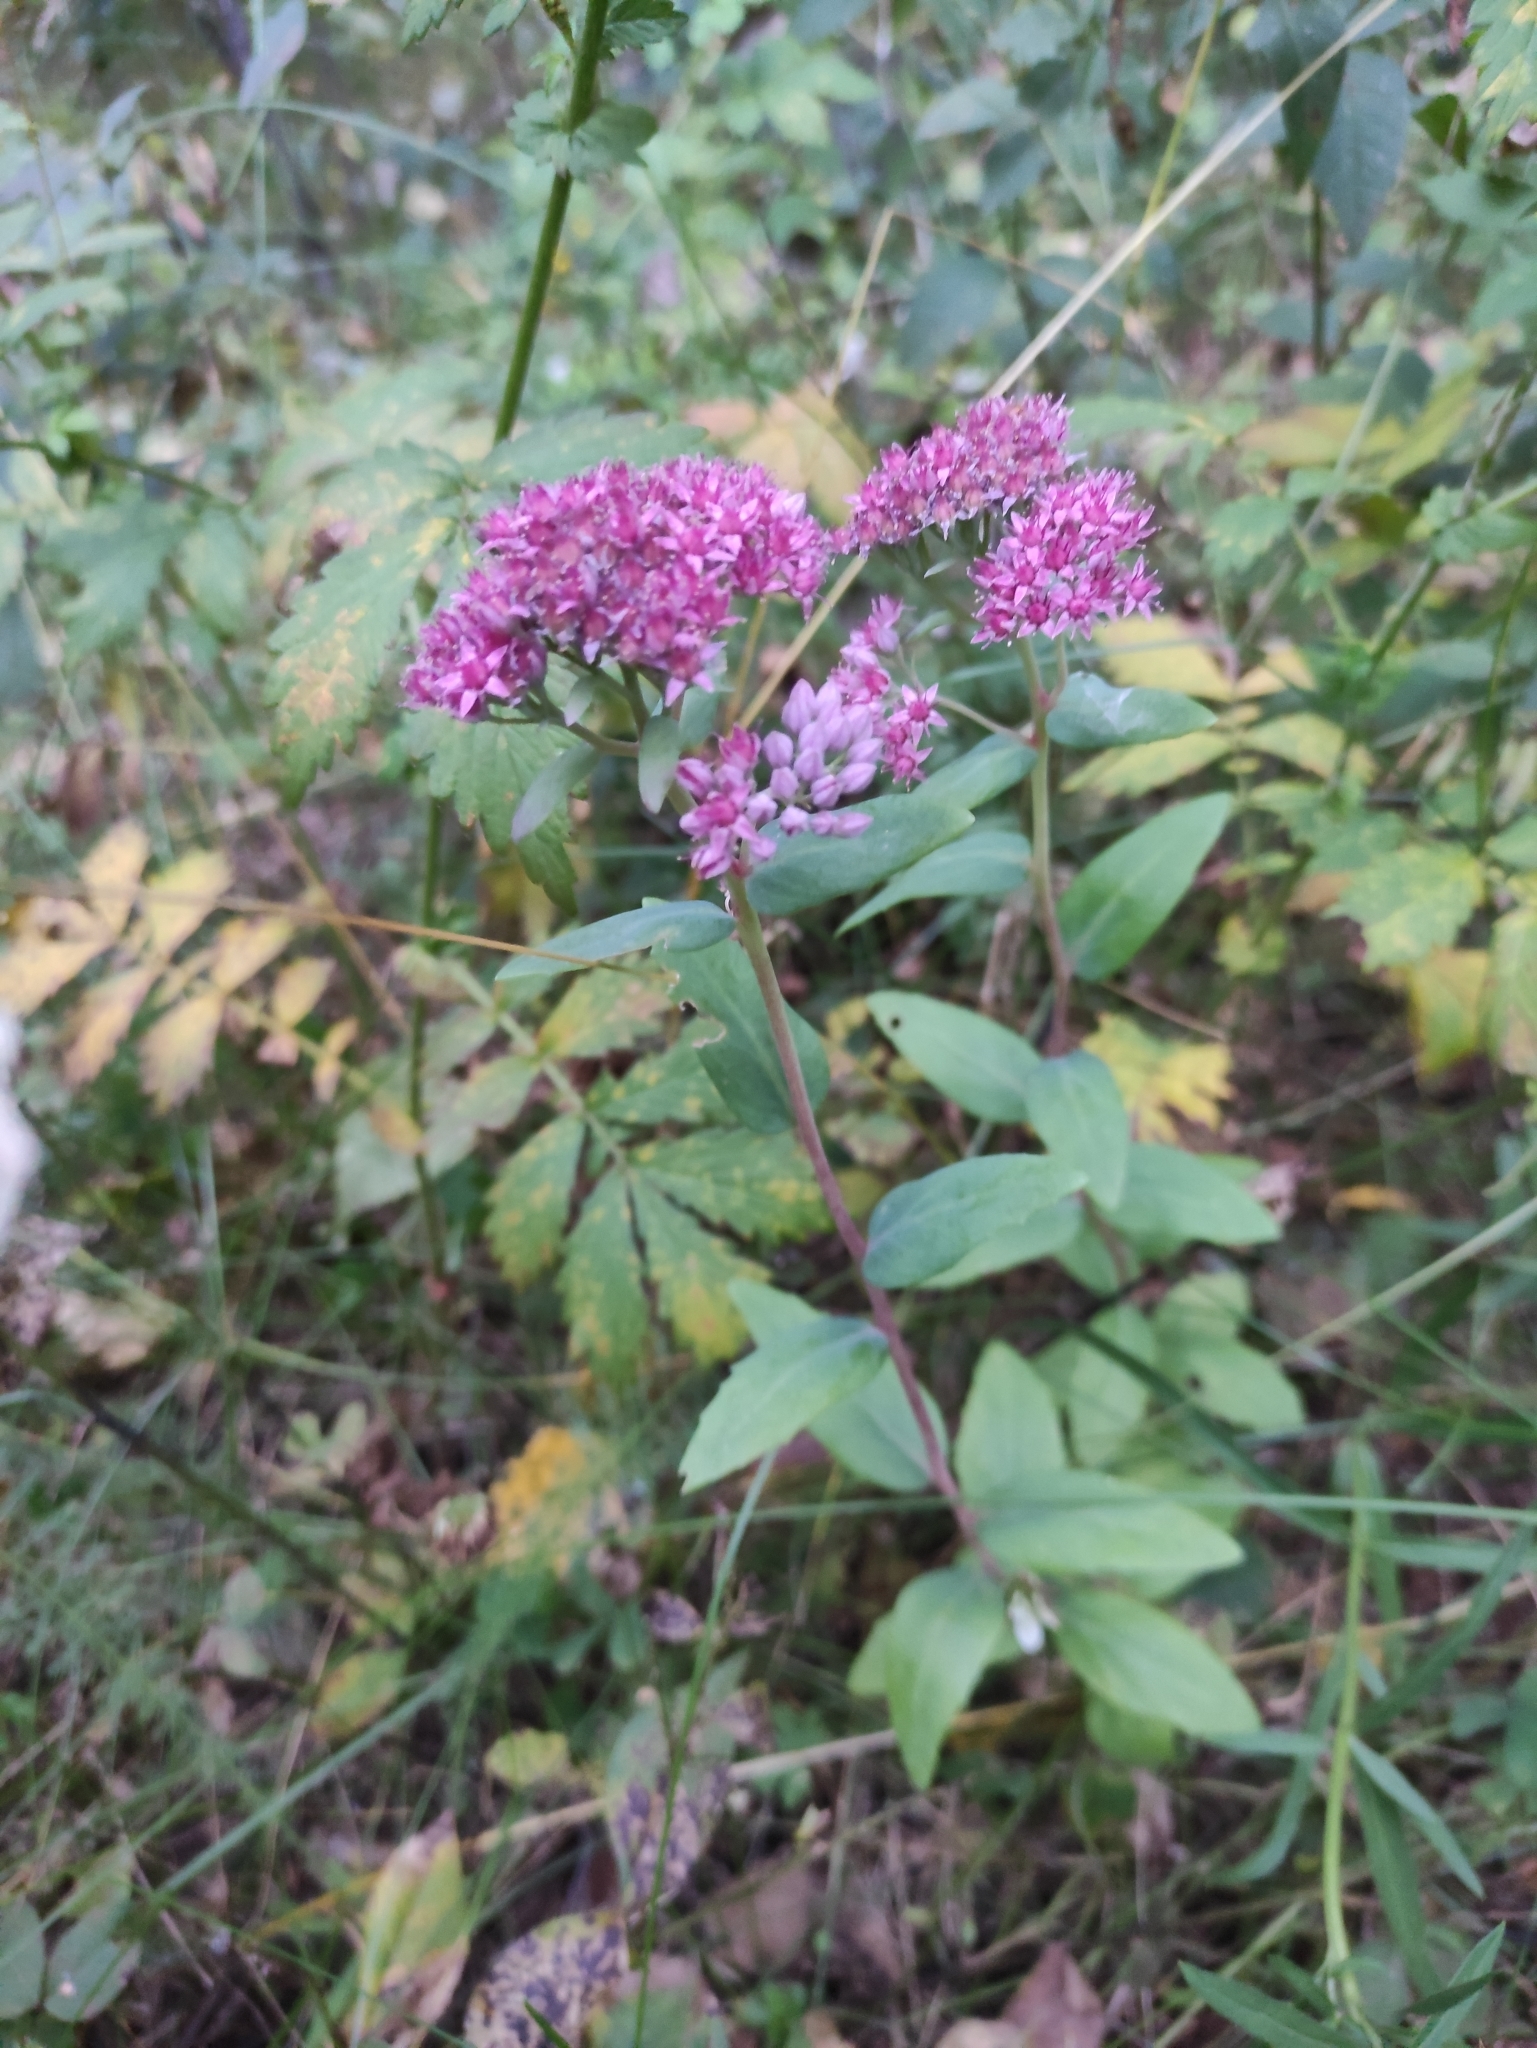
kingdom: Plantae
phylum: Tracheophyta
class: Magnoliopsida
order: Saxifragales
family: Crassulaceae
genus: Hylotelephium
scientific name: Hylotelephium telephium
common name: Live-forever
